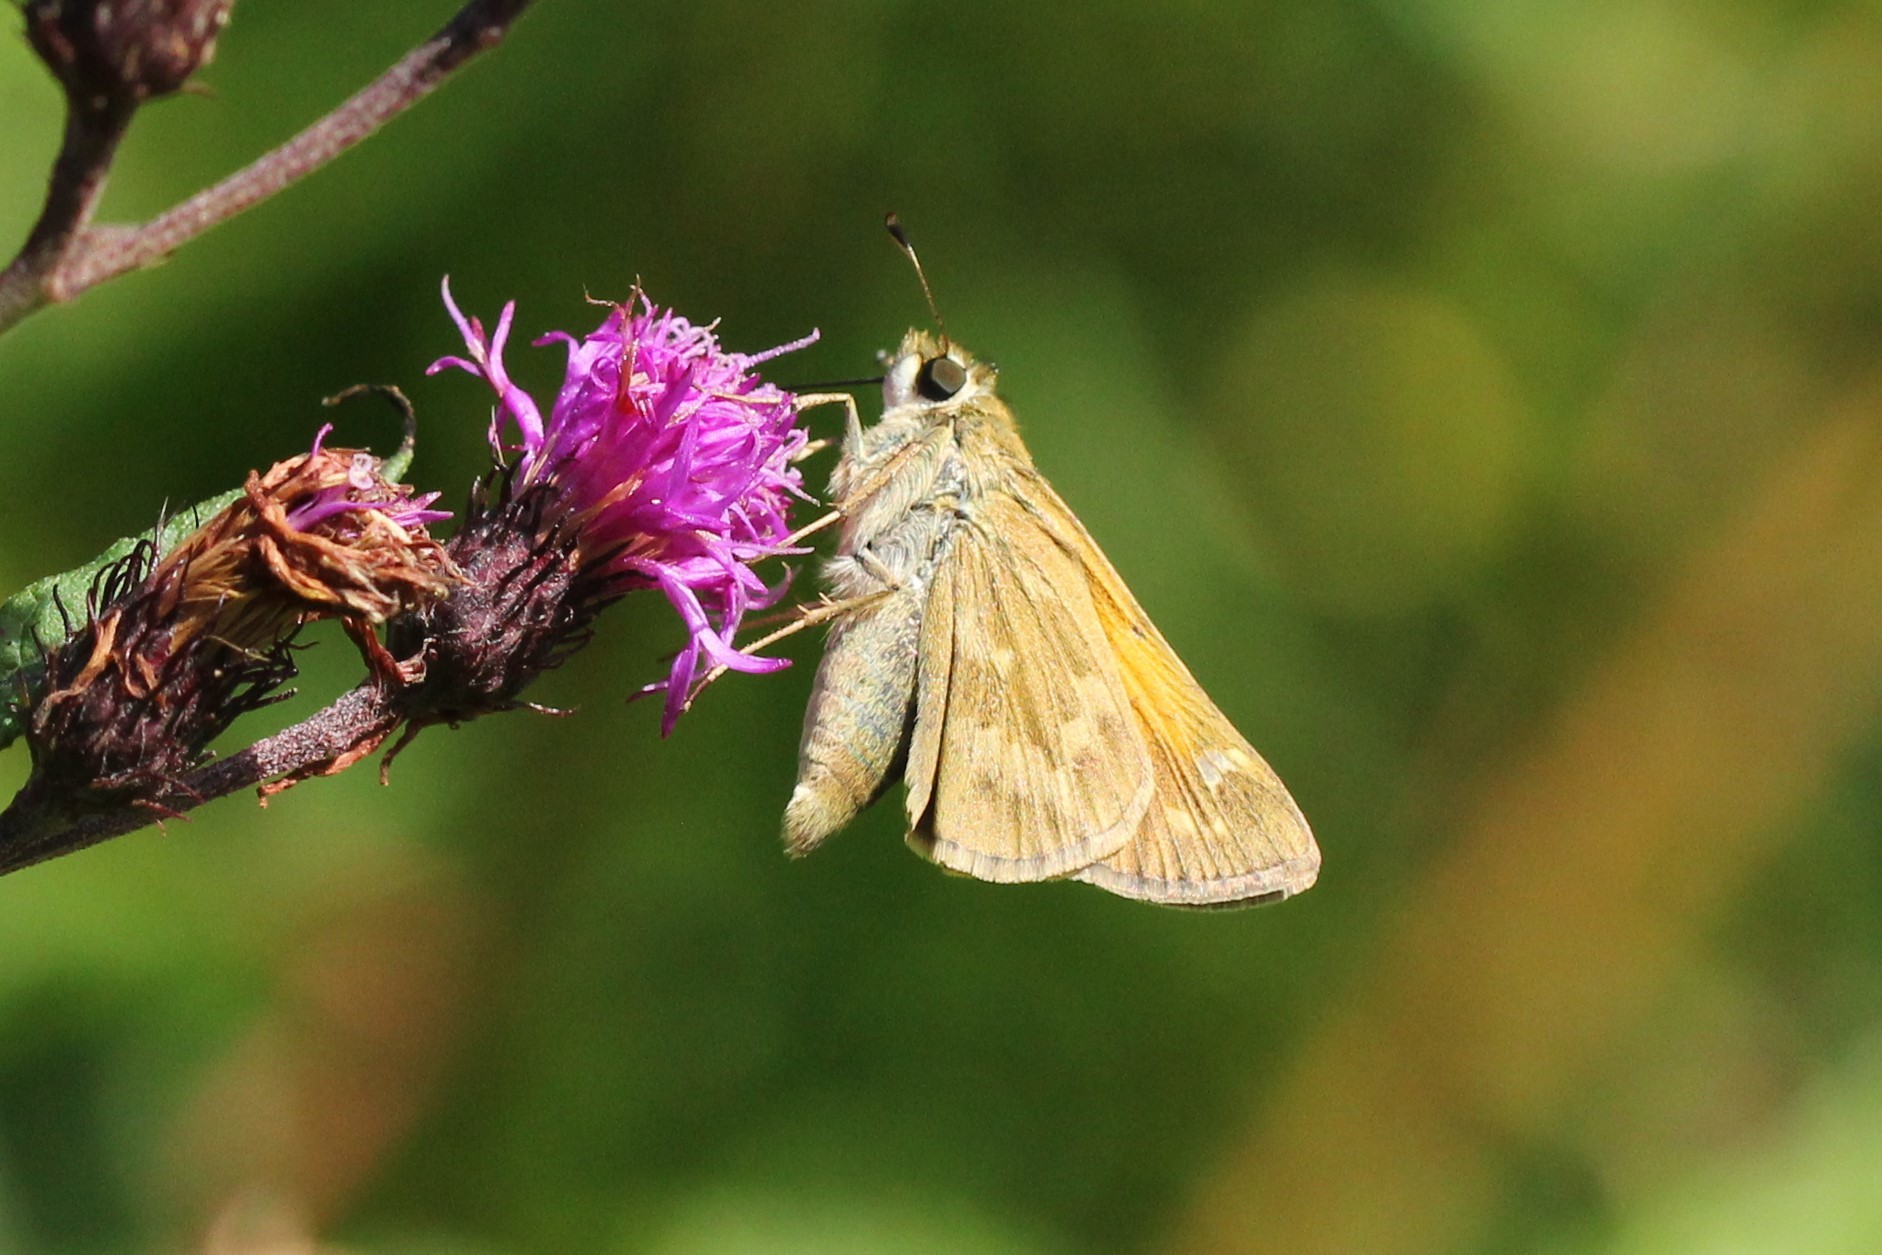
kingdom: Animalia
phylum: Arthropoda
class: Insecta
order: Lepidoptera
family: Hesperiidae
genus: Atalopedes
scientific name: Atalopedes
